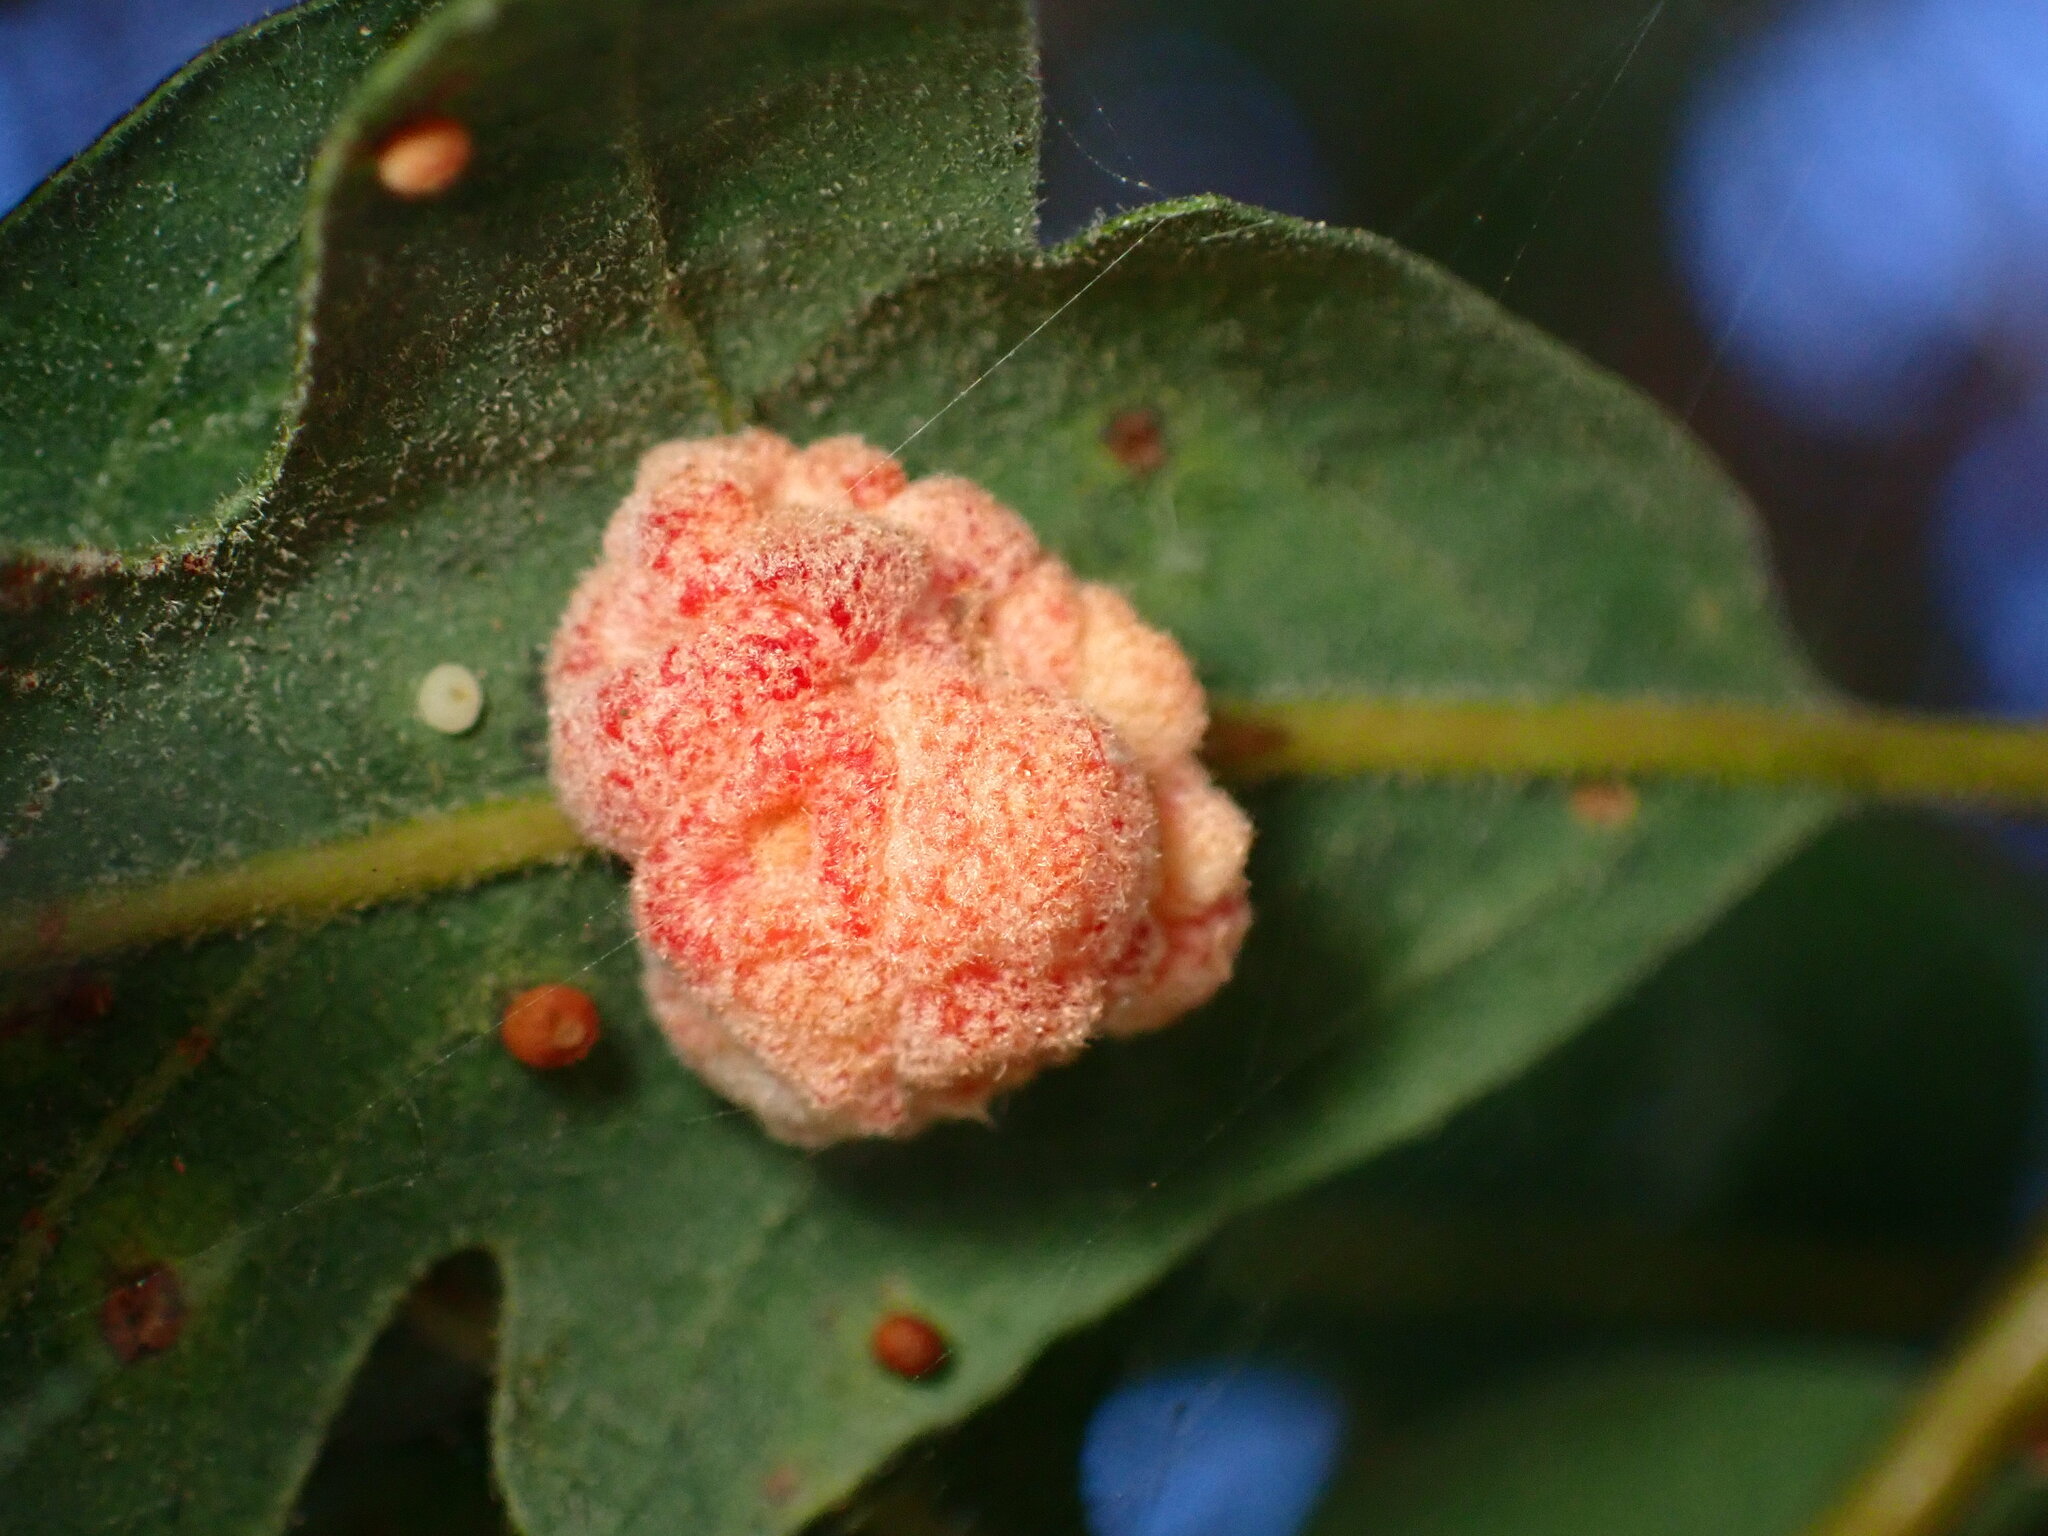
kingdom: Animalia
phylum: Arthropoda
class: Insecta
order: Hymenoptera
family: Cynipidae
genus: Andricus
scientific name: Andricus
